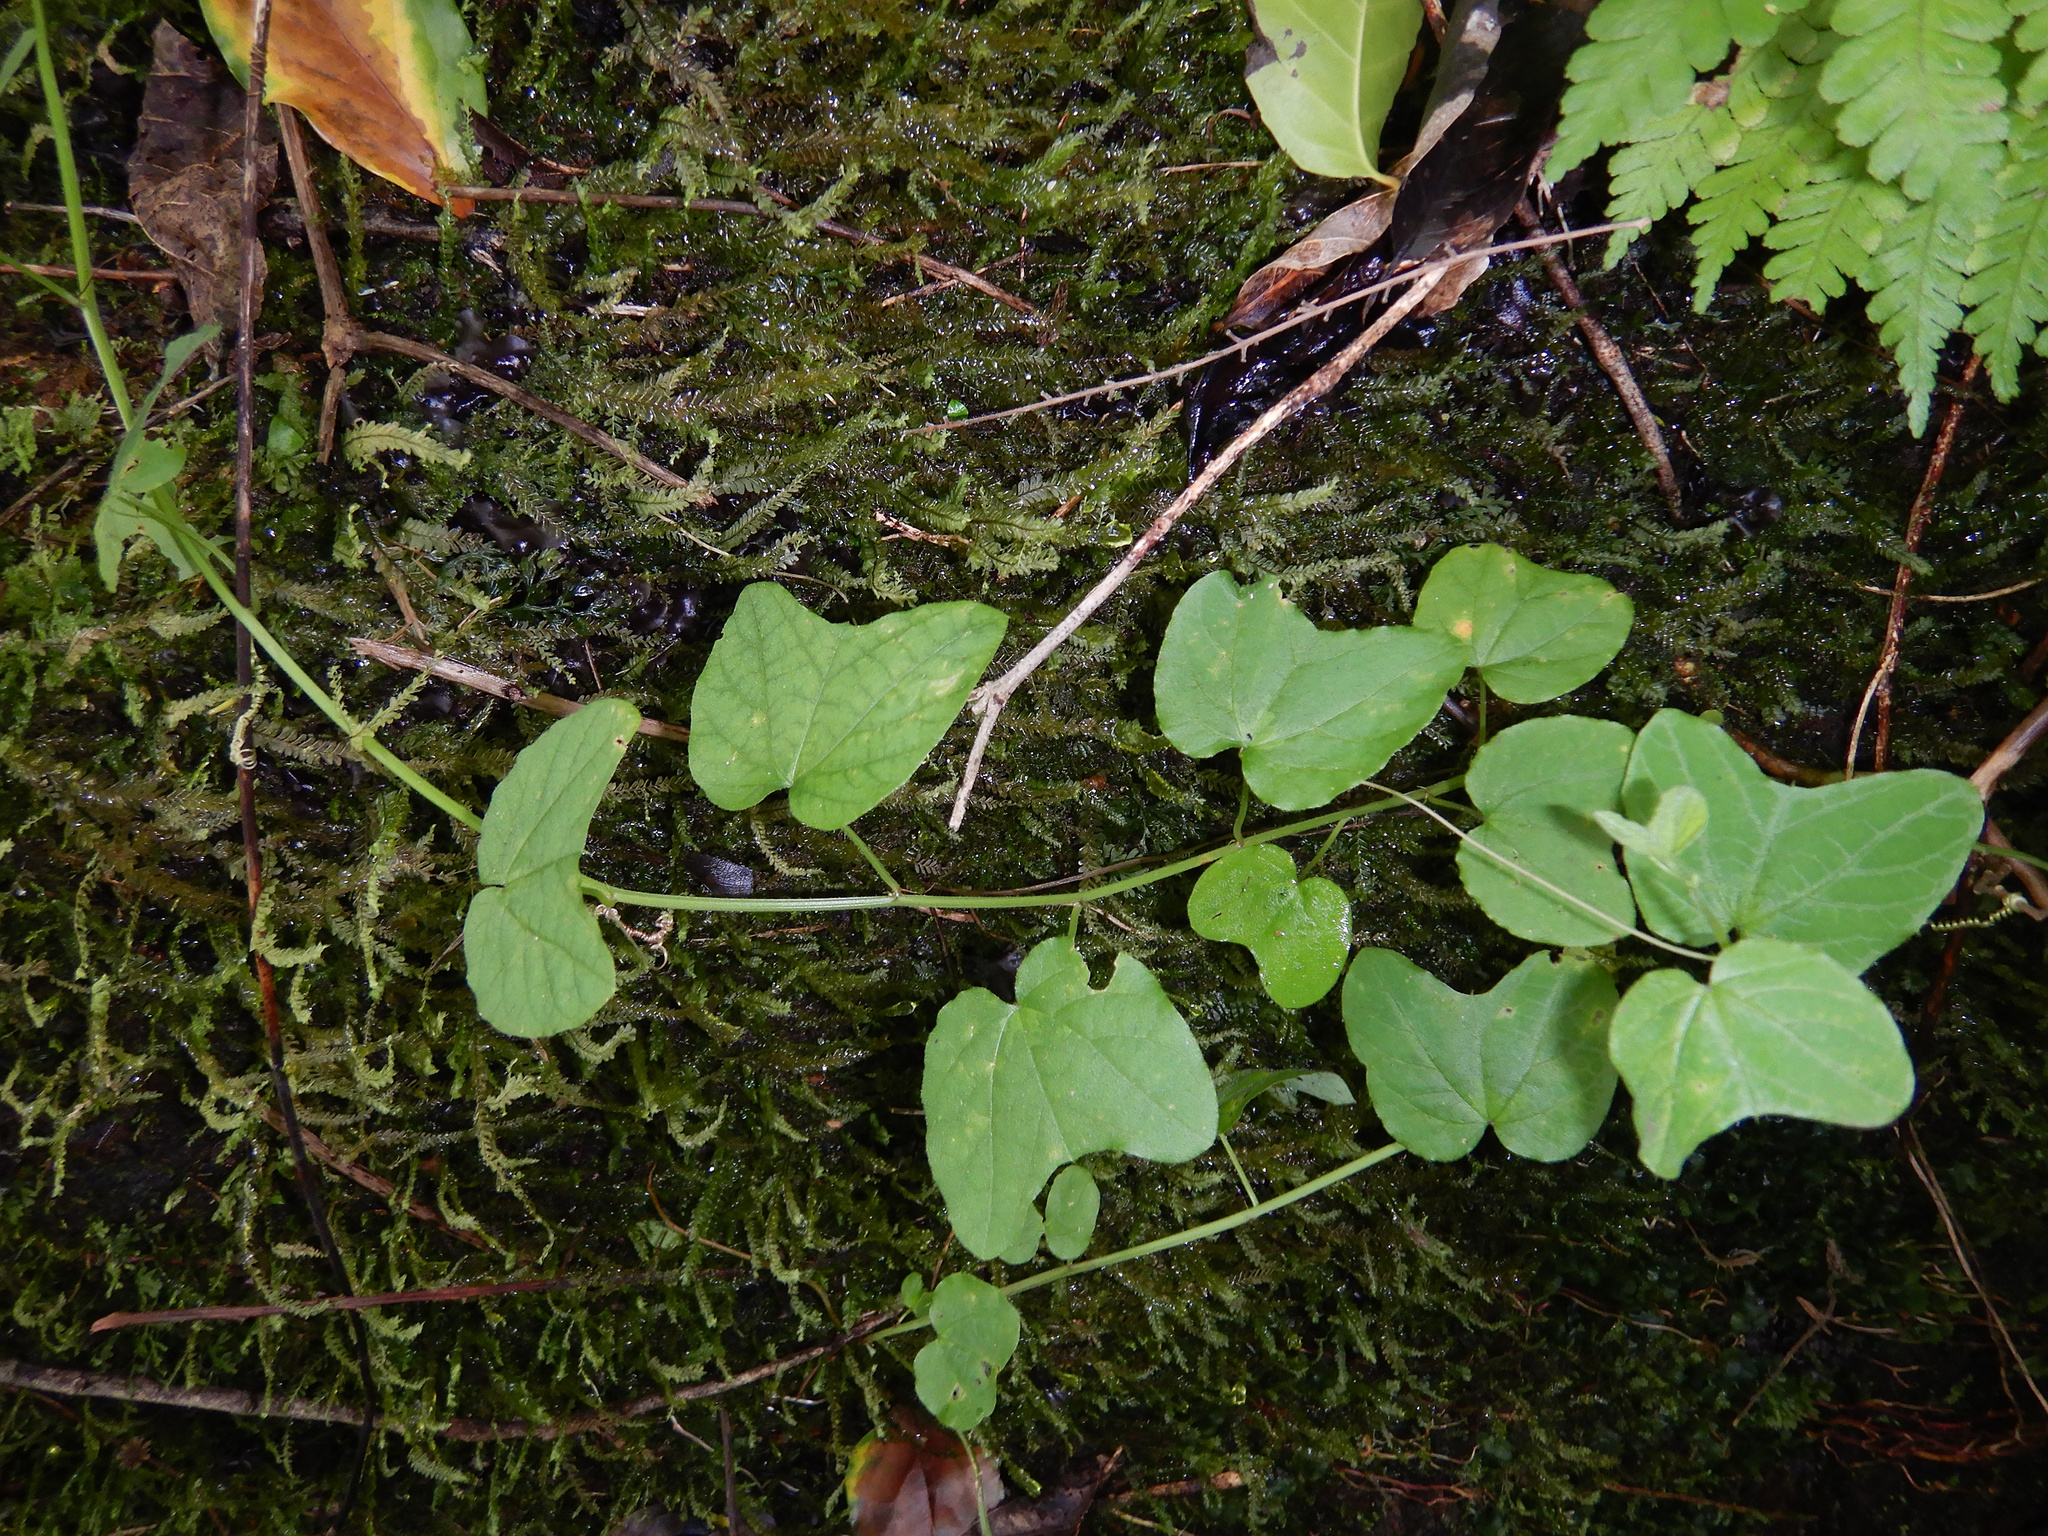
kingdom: Plantae
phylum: Tracheophyta
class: Magnoliopsida
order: Malpighiales
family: Passifloraceae
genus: Passiflora
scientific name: Passiflora rubra
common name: Snakeberry vine
